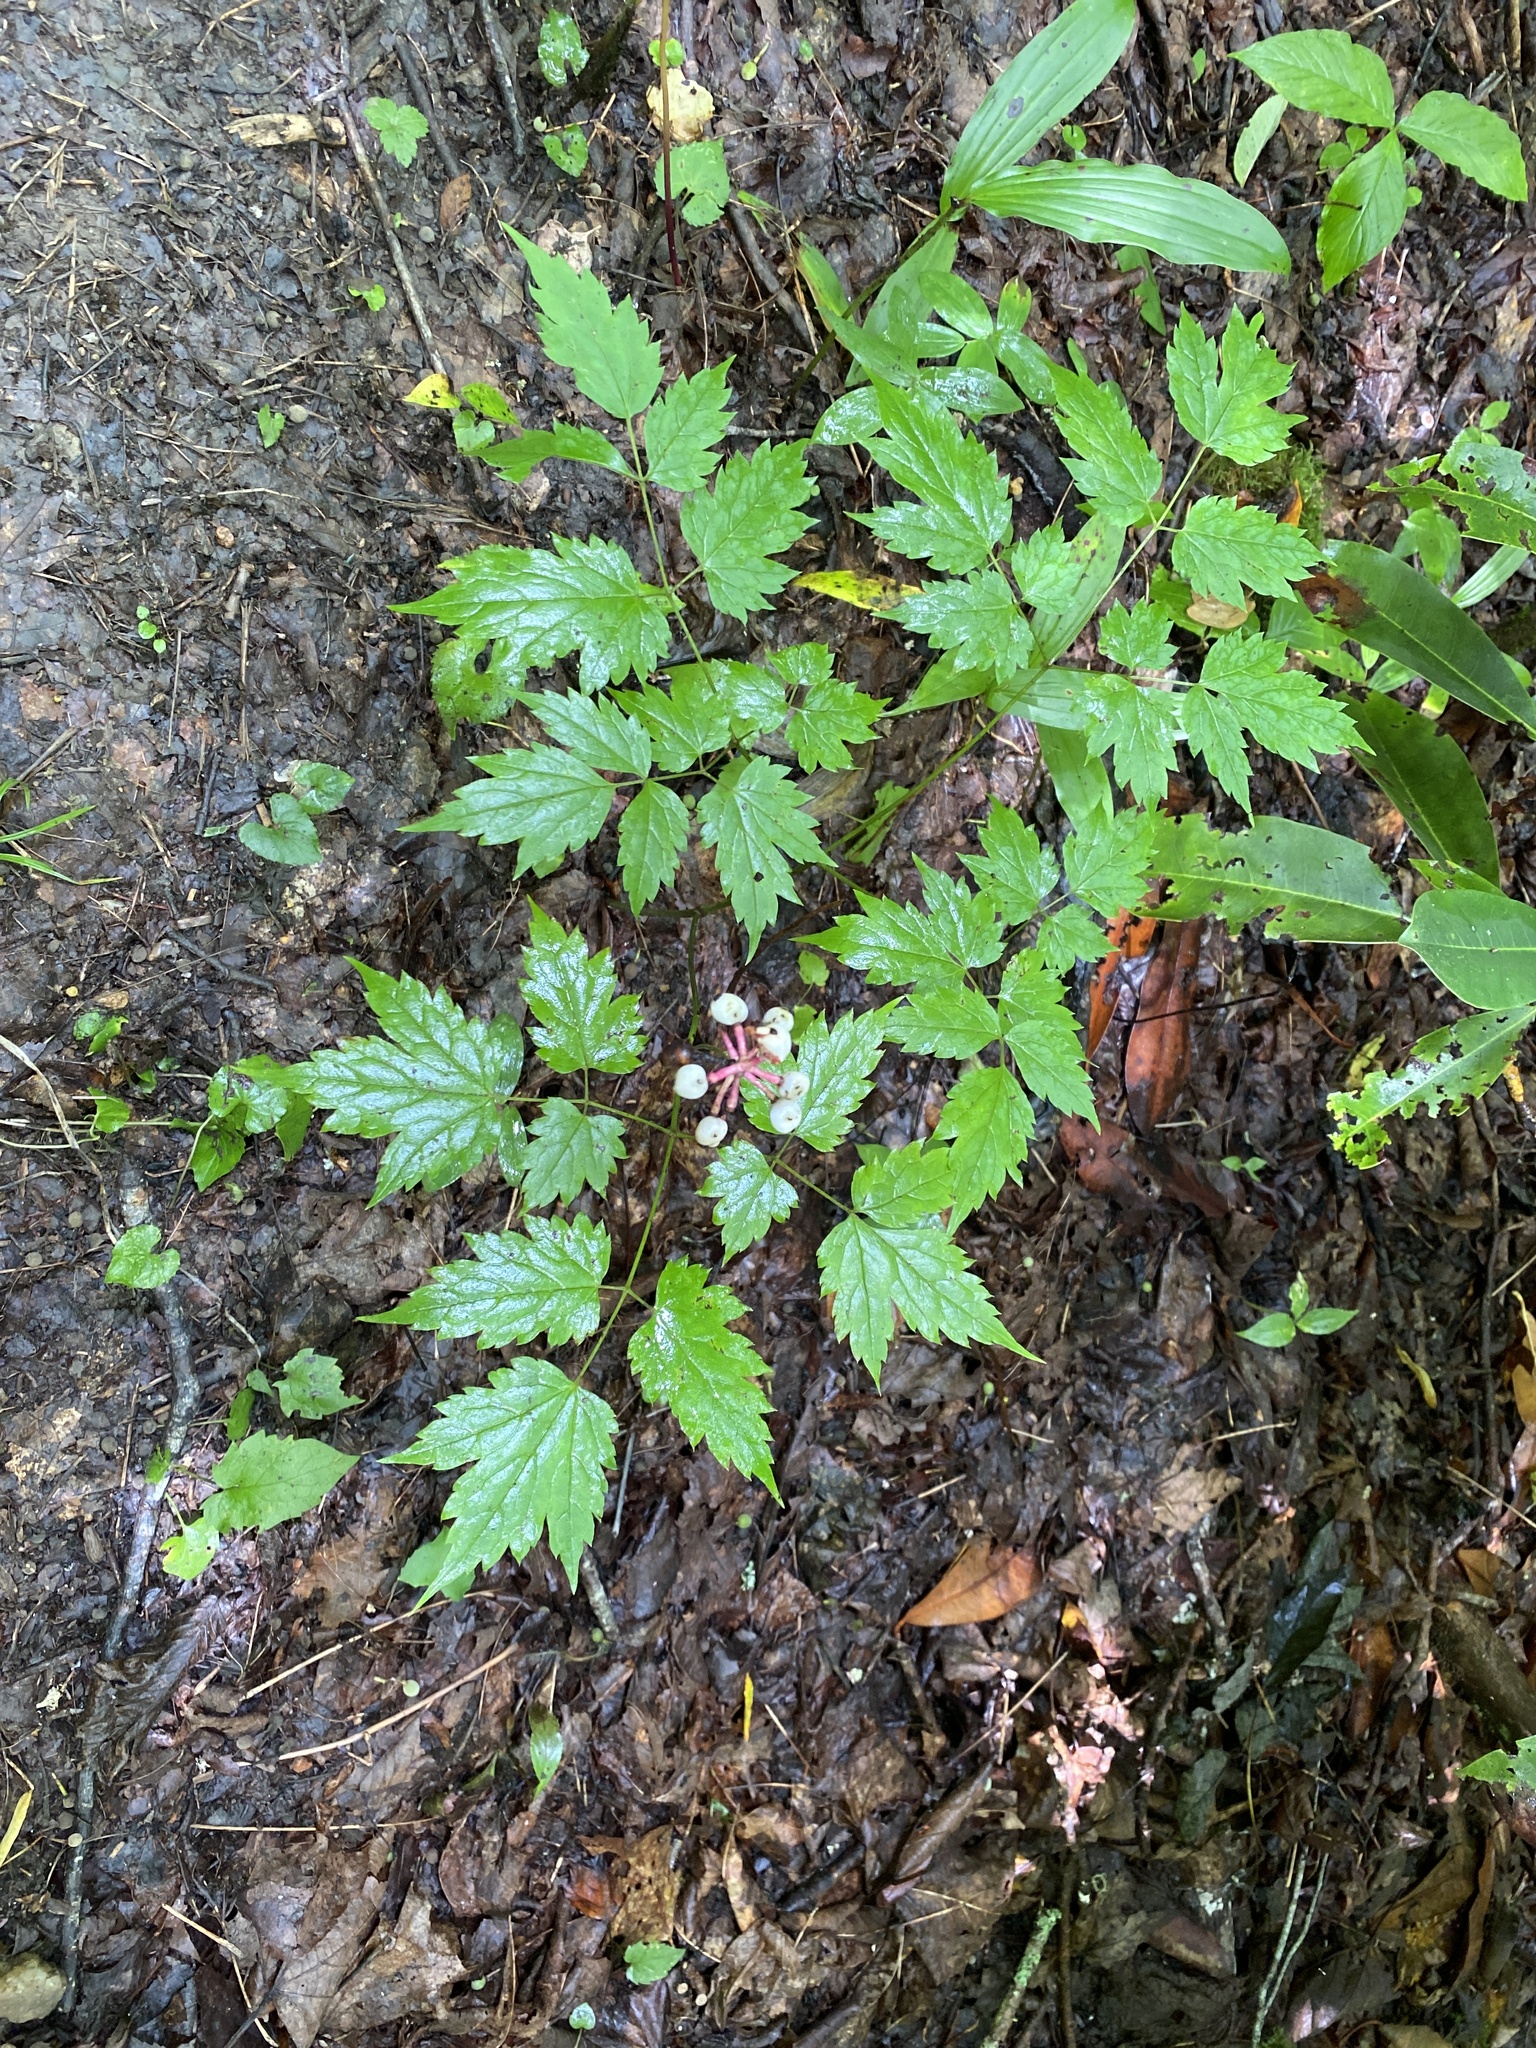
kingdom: Plantae
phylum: Tracheophyta
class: Magnoliopsida
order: Ranunculales
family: Ranunculaceae
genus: Actaea
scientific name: Actaea pachypoda
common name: Doll's-eyes
